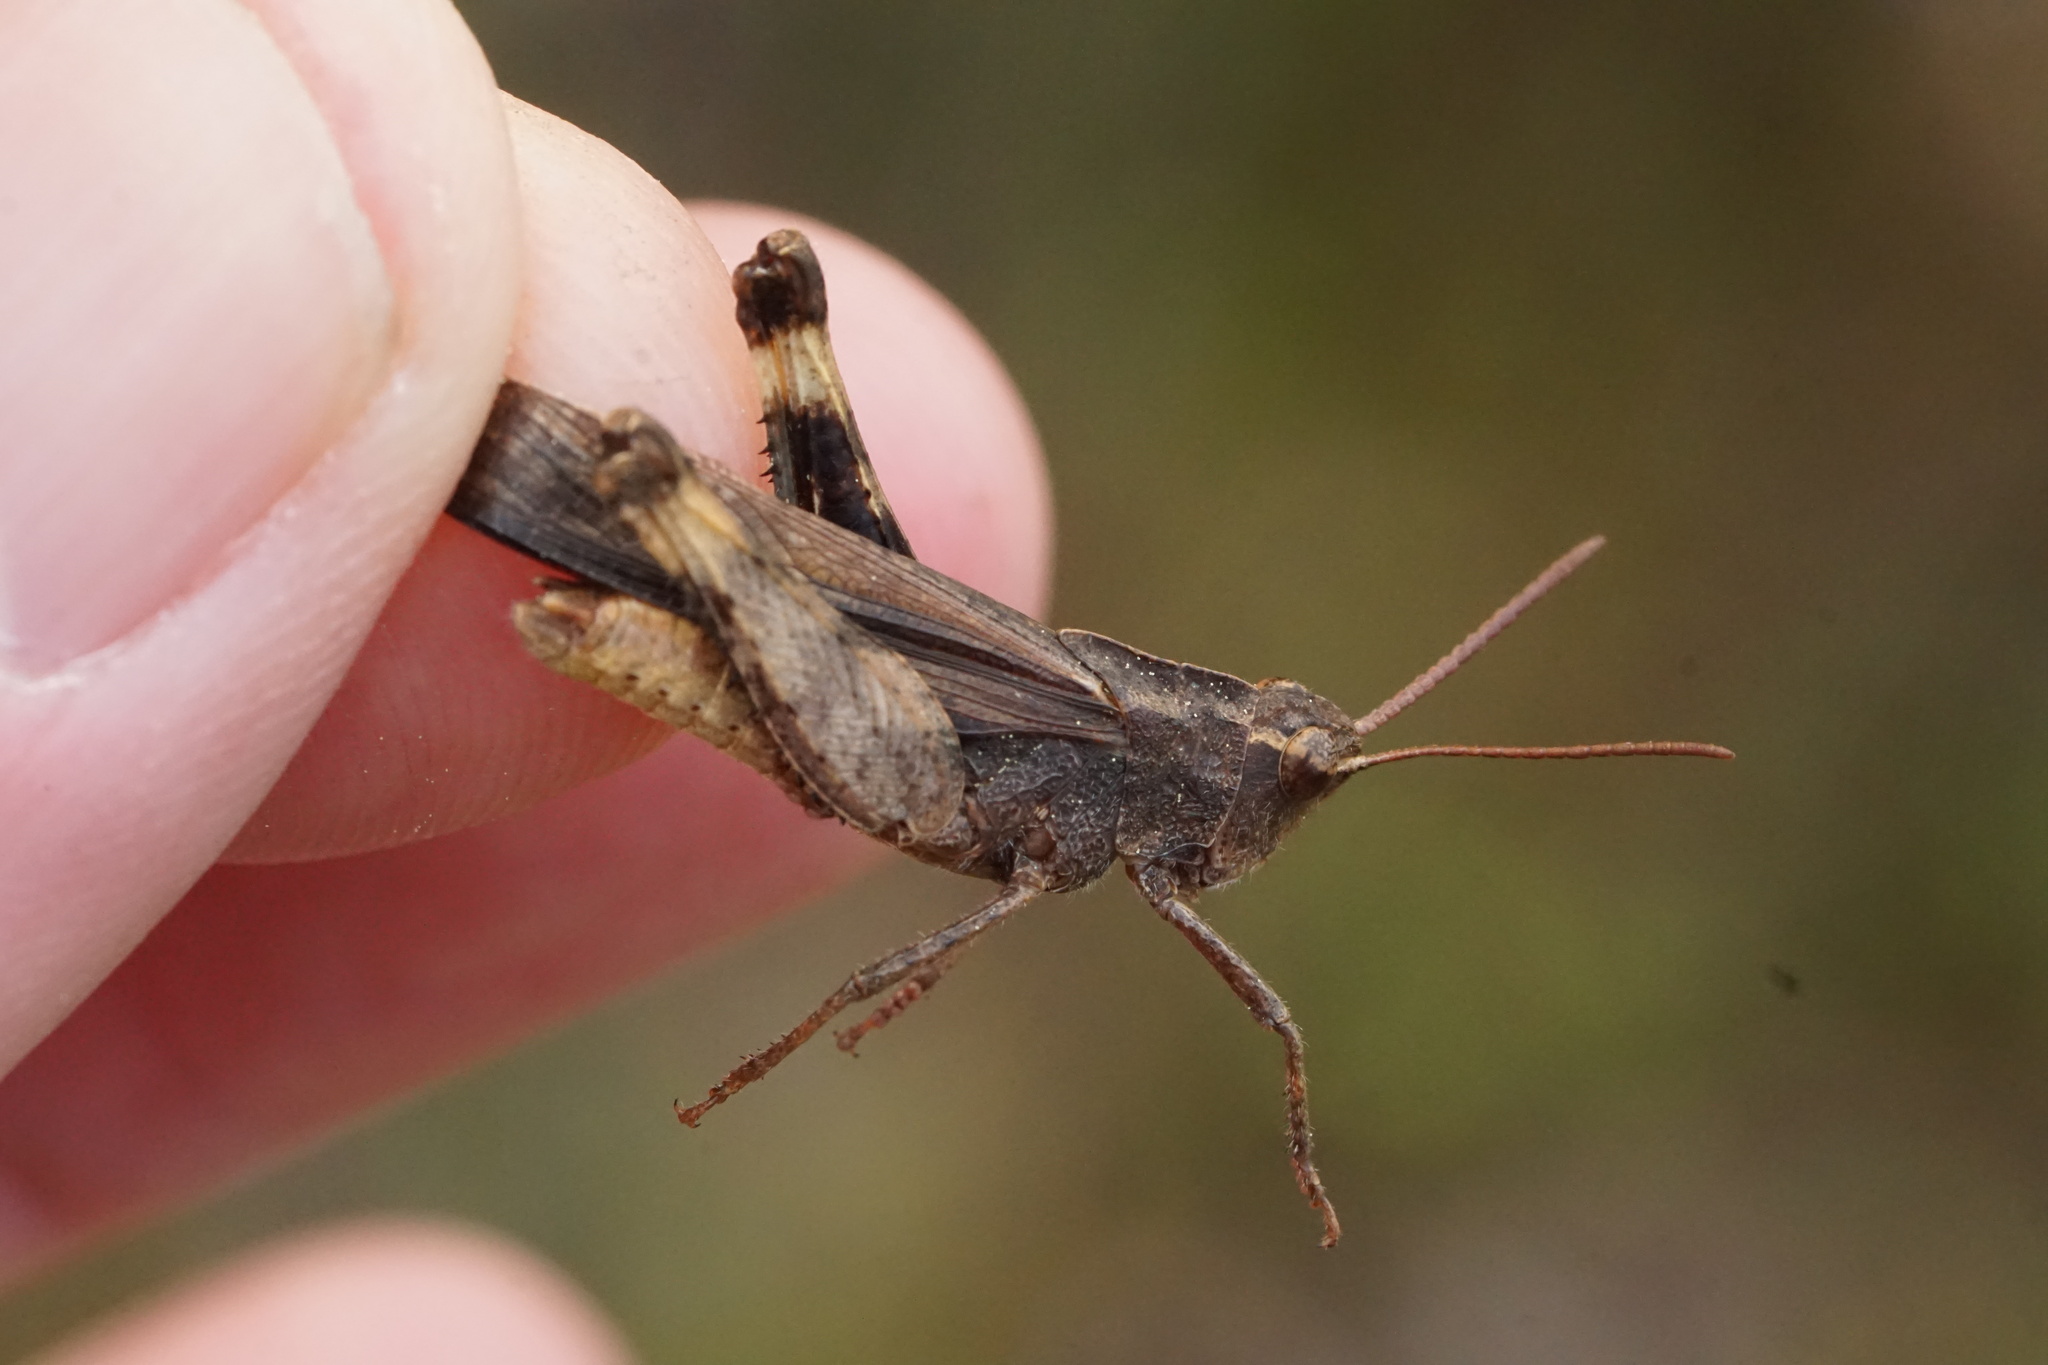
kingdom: Animalia
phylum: Arthropoda
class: Insecta
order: Orthoptera
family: Acrididae
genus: Chortophaga
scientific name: Chortophaga viridifasciata
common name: Green-striped grasshopper
